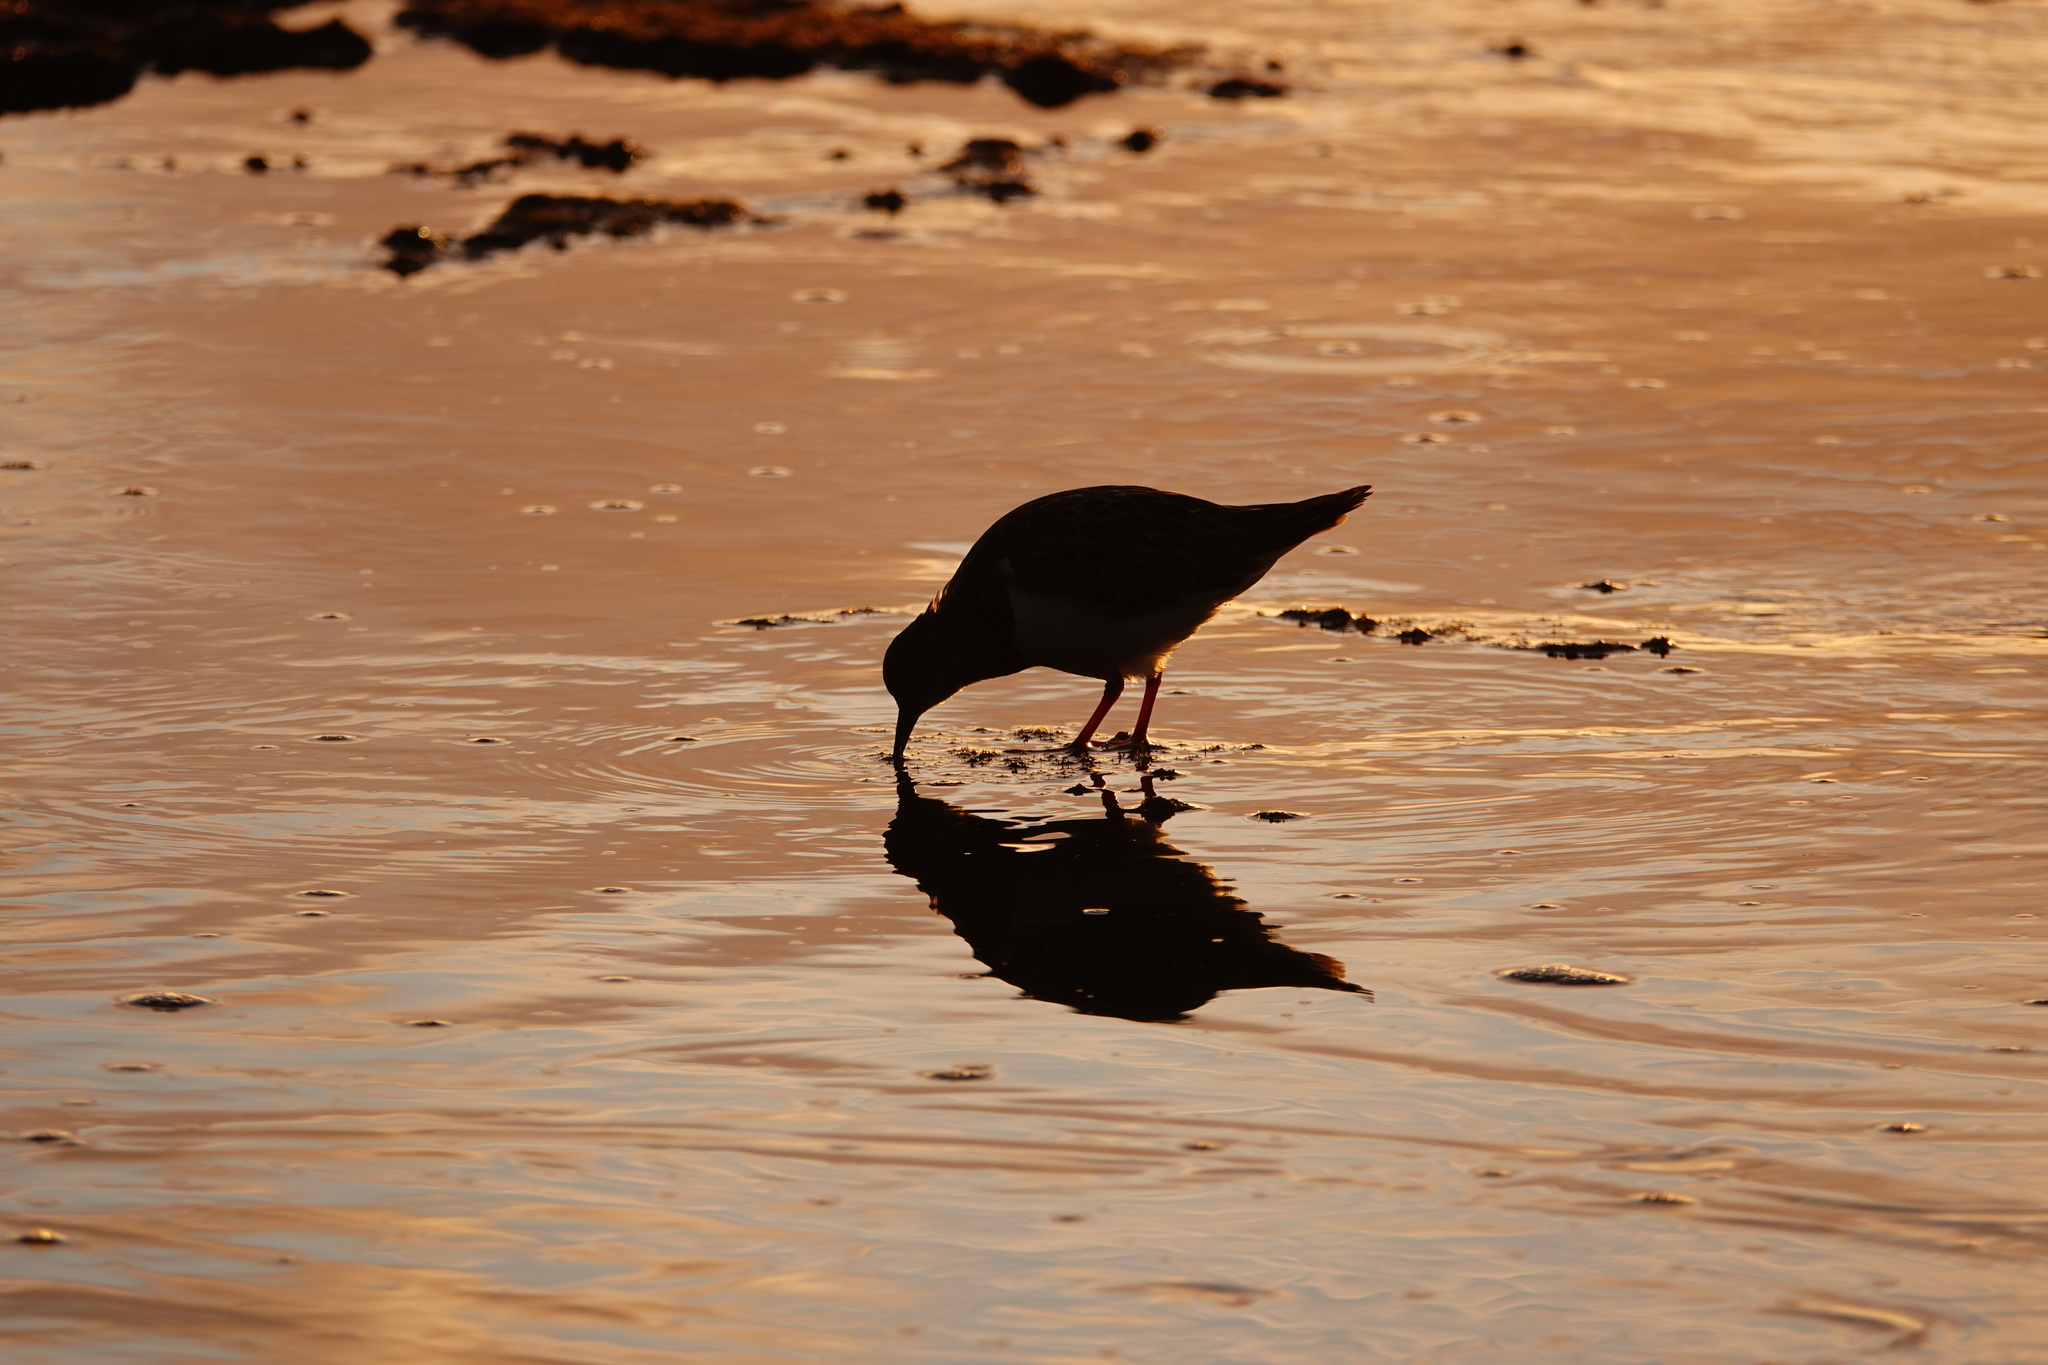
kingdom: Animalia
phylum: Chordata
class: Aves
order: Charadriiformes
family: Scolopacidae
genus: Arenaria
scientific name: Arenaria interpres
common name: Ruddy turnstone
